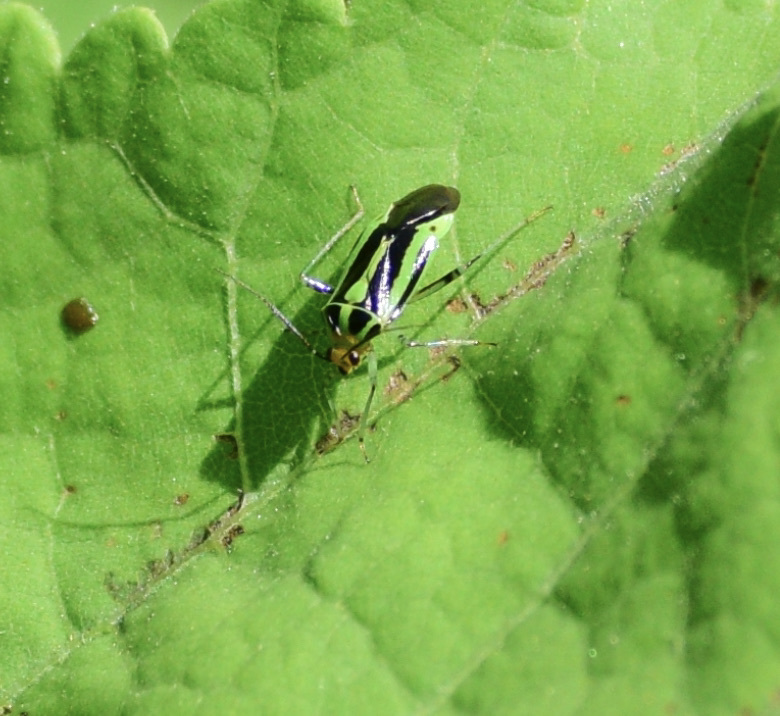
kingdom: Animalia
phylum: Arthropoda
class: Insecta
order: Hemiptera
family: Miridae
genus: Poecilocapsus
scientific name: Poecilocapsus lineatus
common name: Four-lined plant bug
